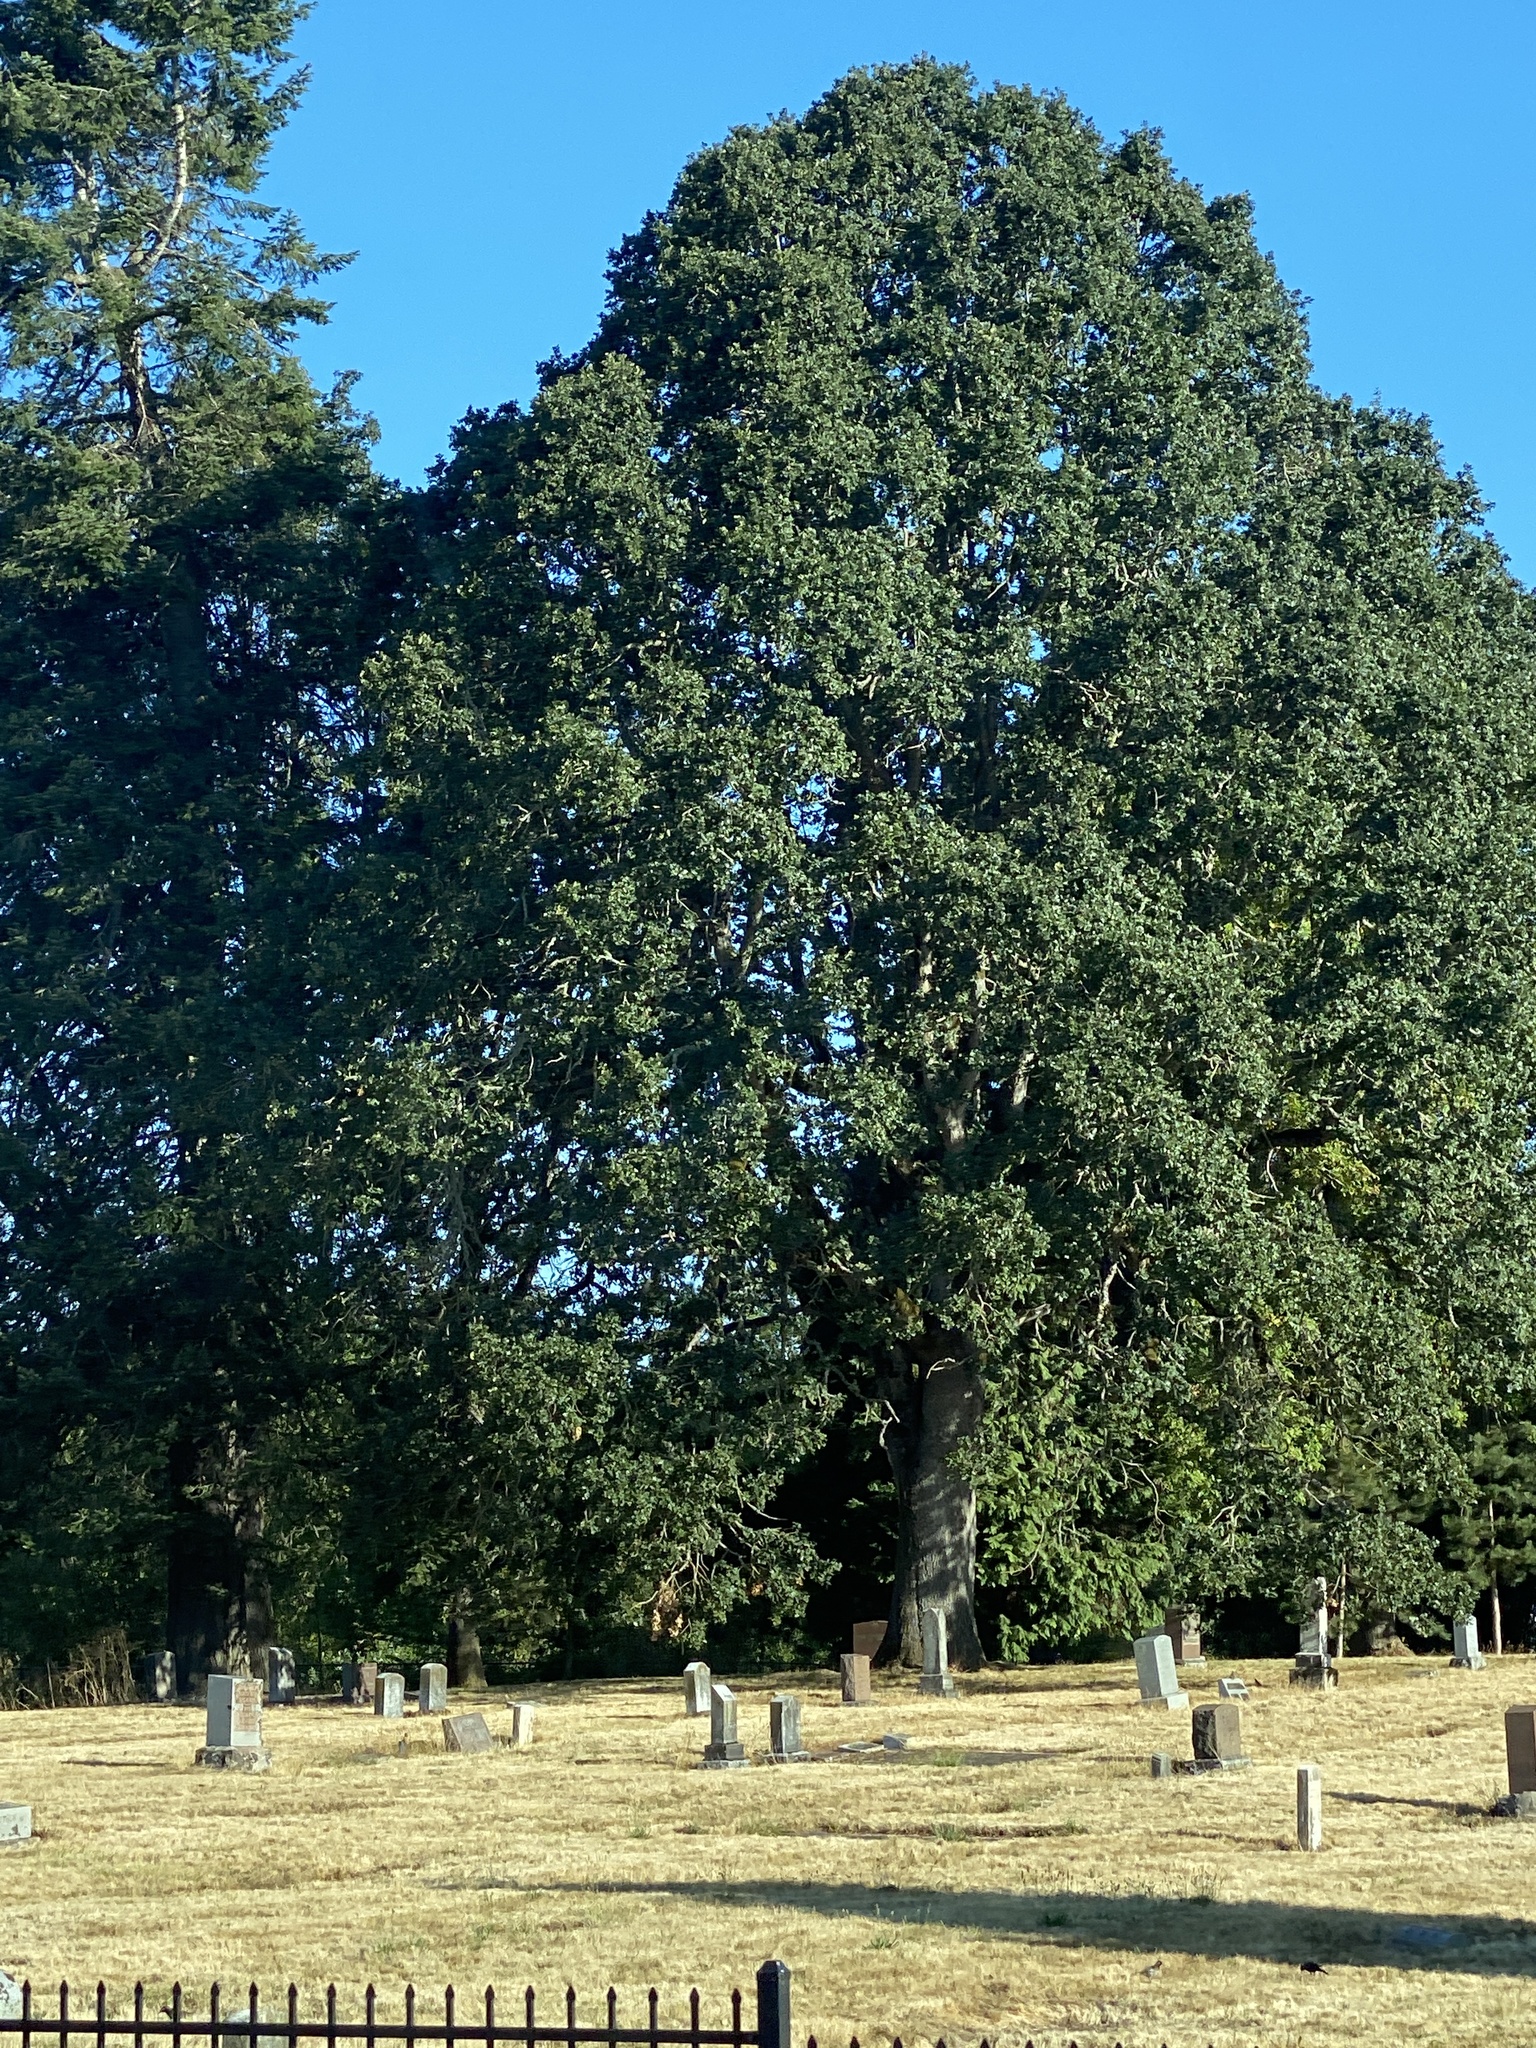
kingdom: Plantae
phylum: Tracheophyta
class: Magnoliopsida
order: Fagales
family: Fagaceae
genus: Quercus
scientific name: Quercus garryana
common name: Garry oak
